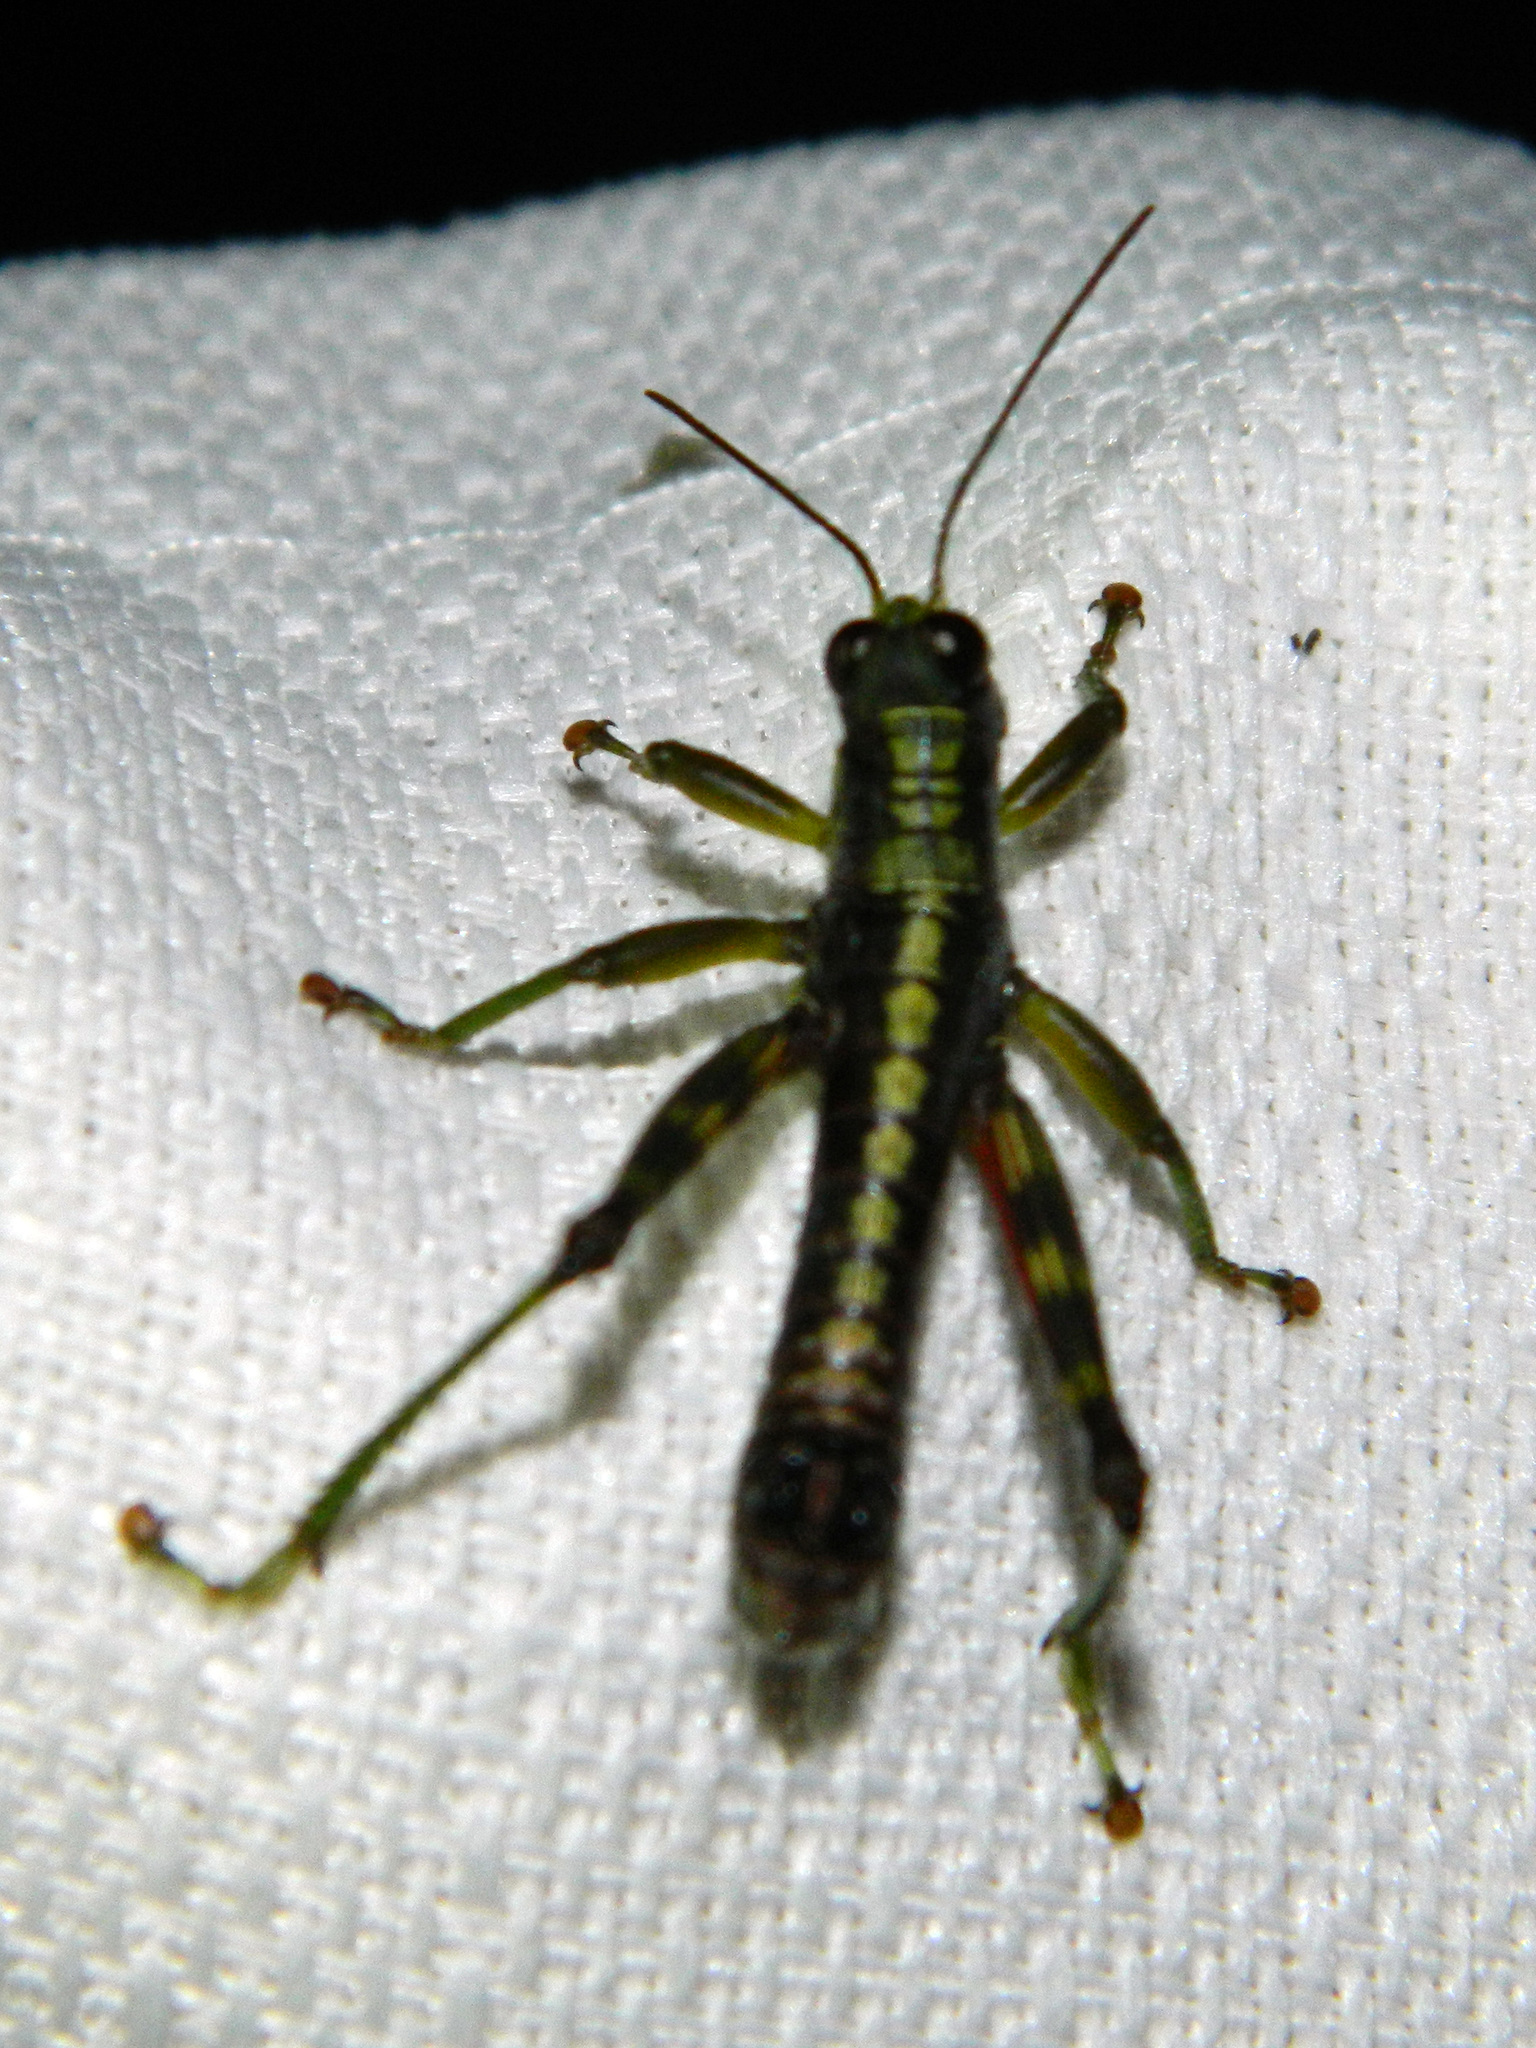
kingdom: Animalia
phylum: Arthropoda
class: Insecta
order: Orthoptera
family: Acrididae
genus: Booneacris
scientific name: Booneacris glacialis
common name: Wingless mountain grasshopper
